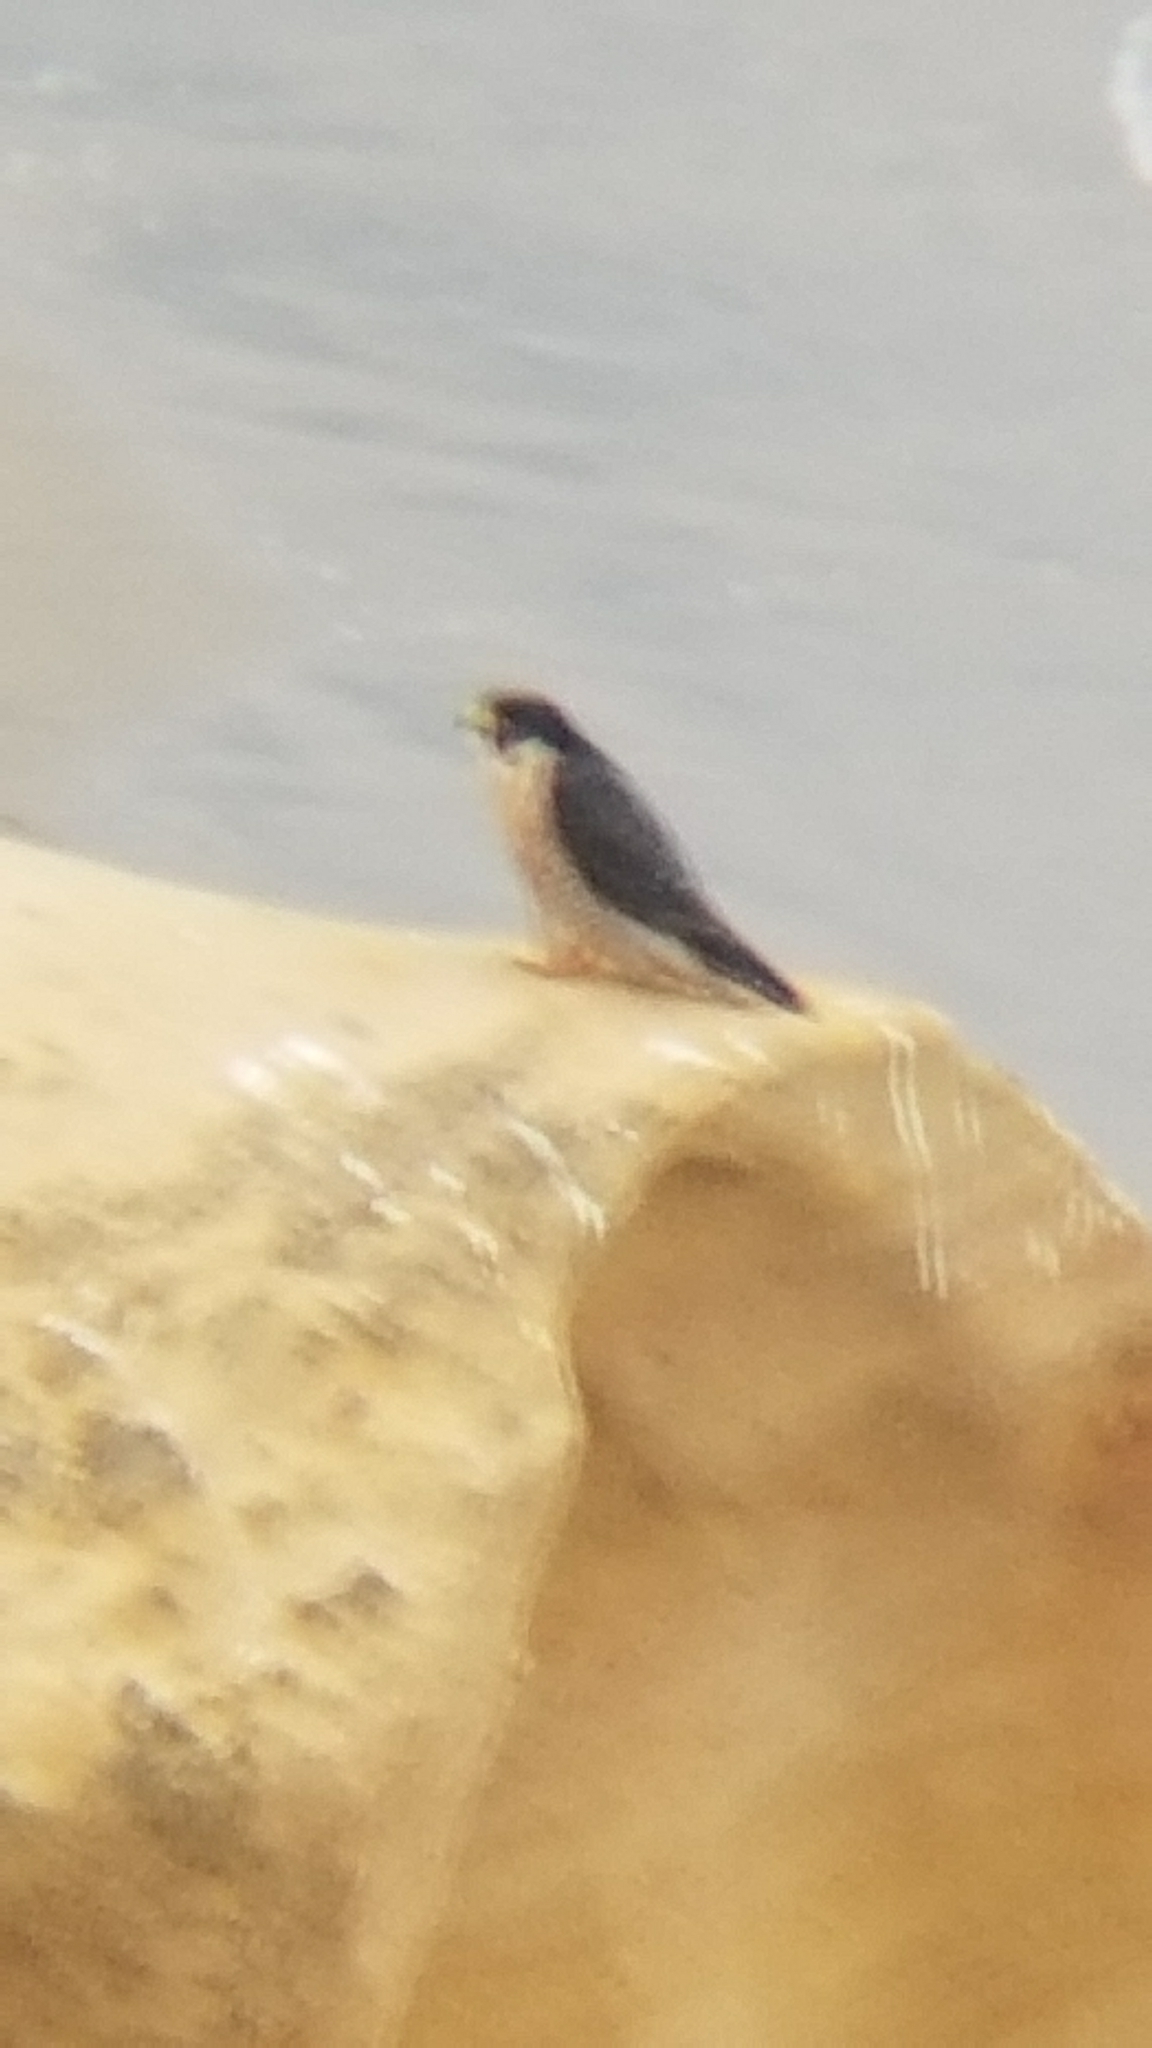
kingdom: Animalia
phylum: Chordata
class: Aves
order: Falconiformes
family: Falconidae
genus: Falco
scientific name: Falco peregrinus
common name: Peregrine falcon
